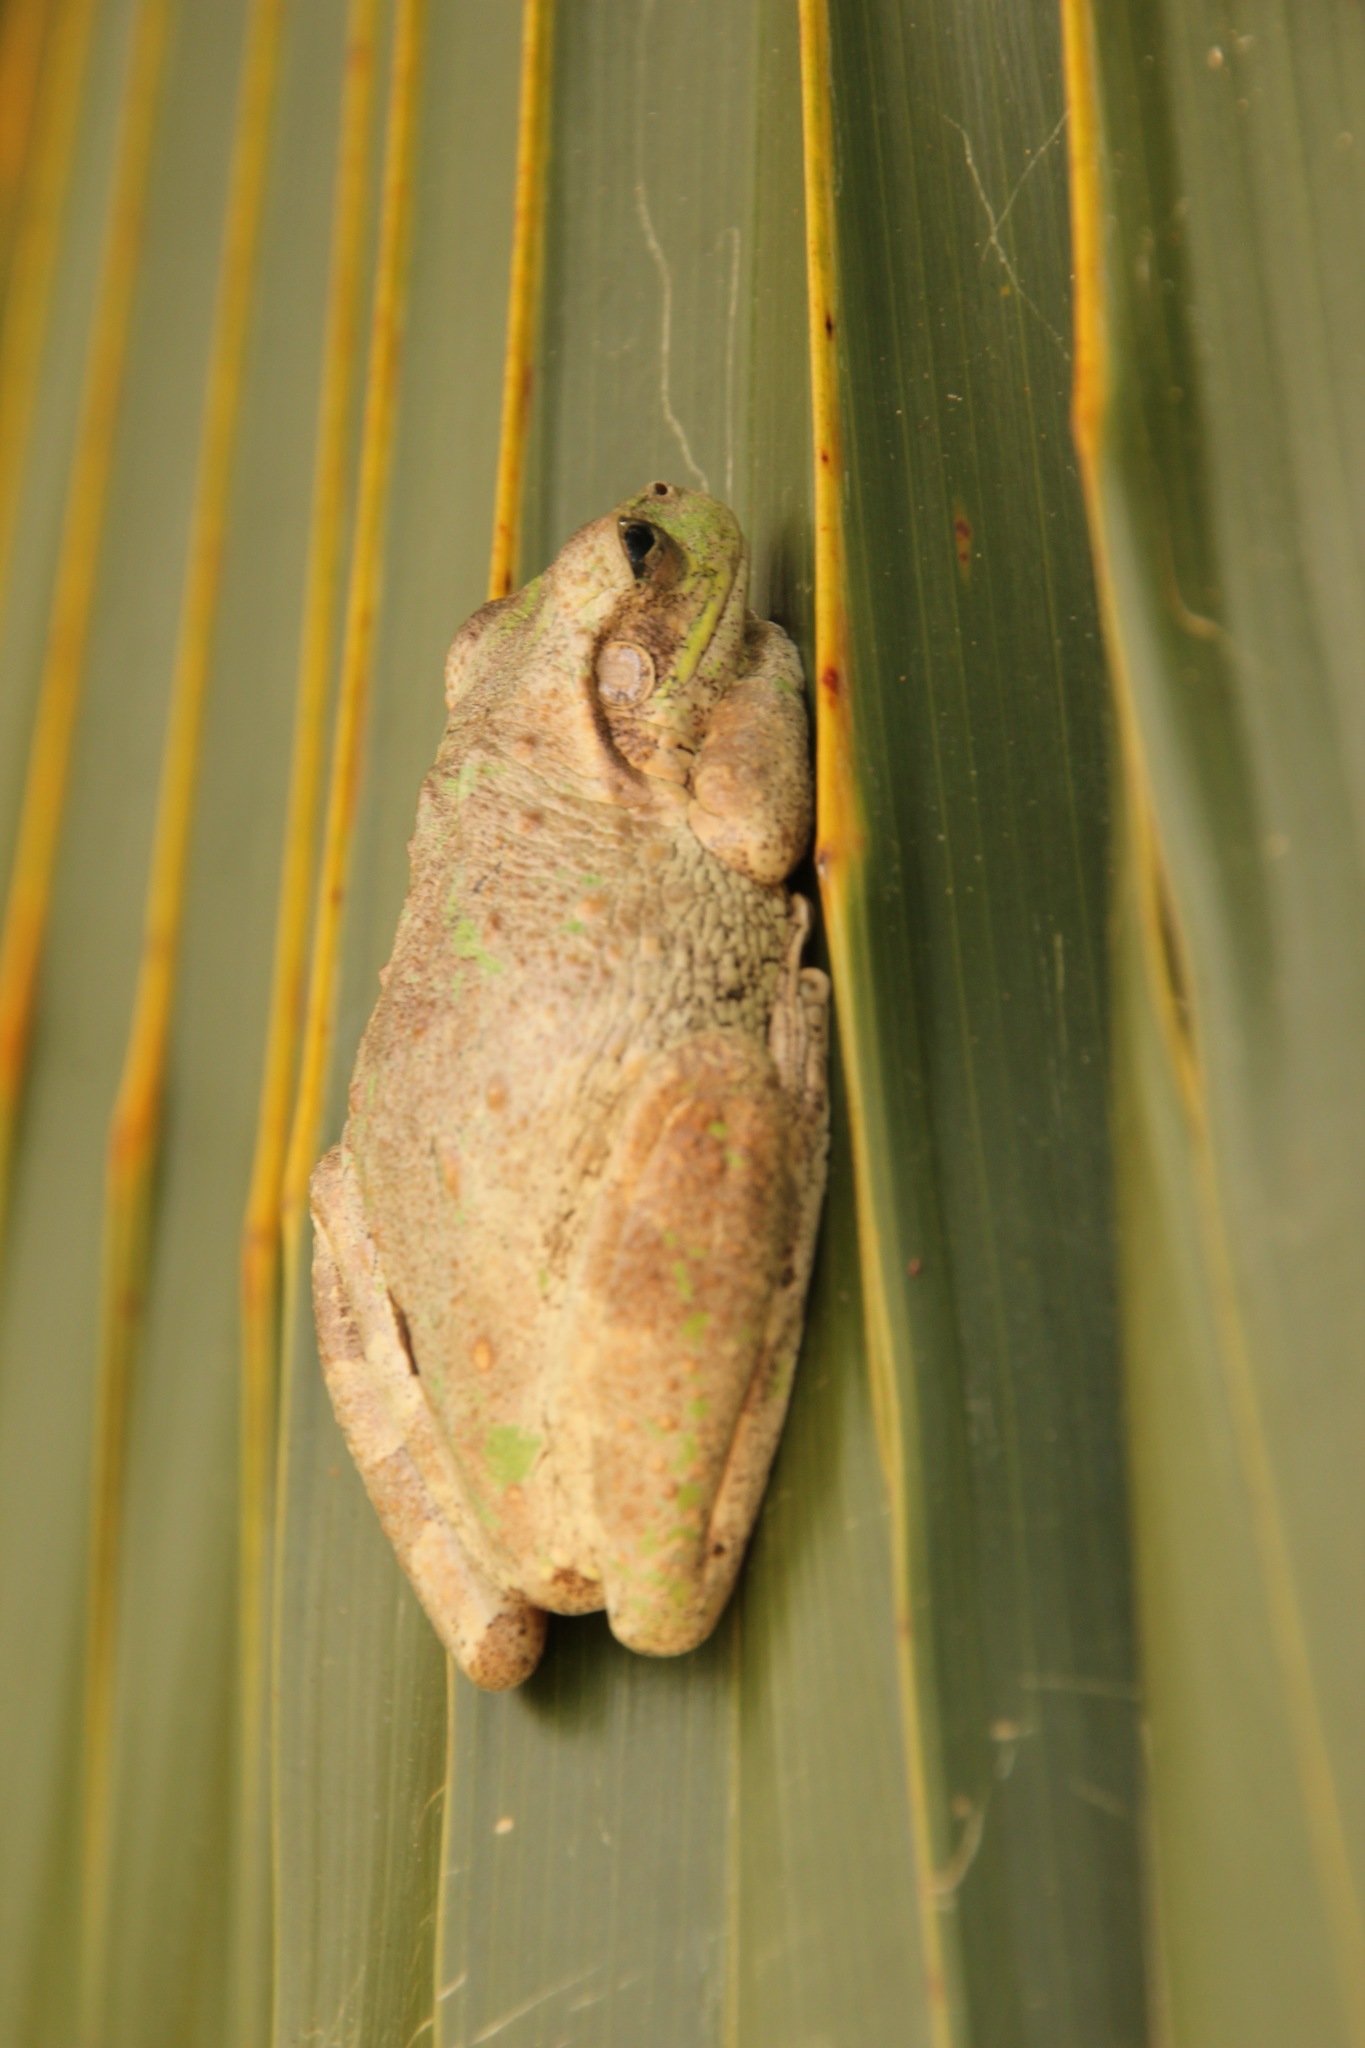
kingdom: Animalia
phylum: Chordata
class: Amphibia
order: Anura
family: Hylidae
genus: Osteopilus
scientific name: Osteopilus septentrionalis
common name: Cuban treefrog
